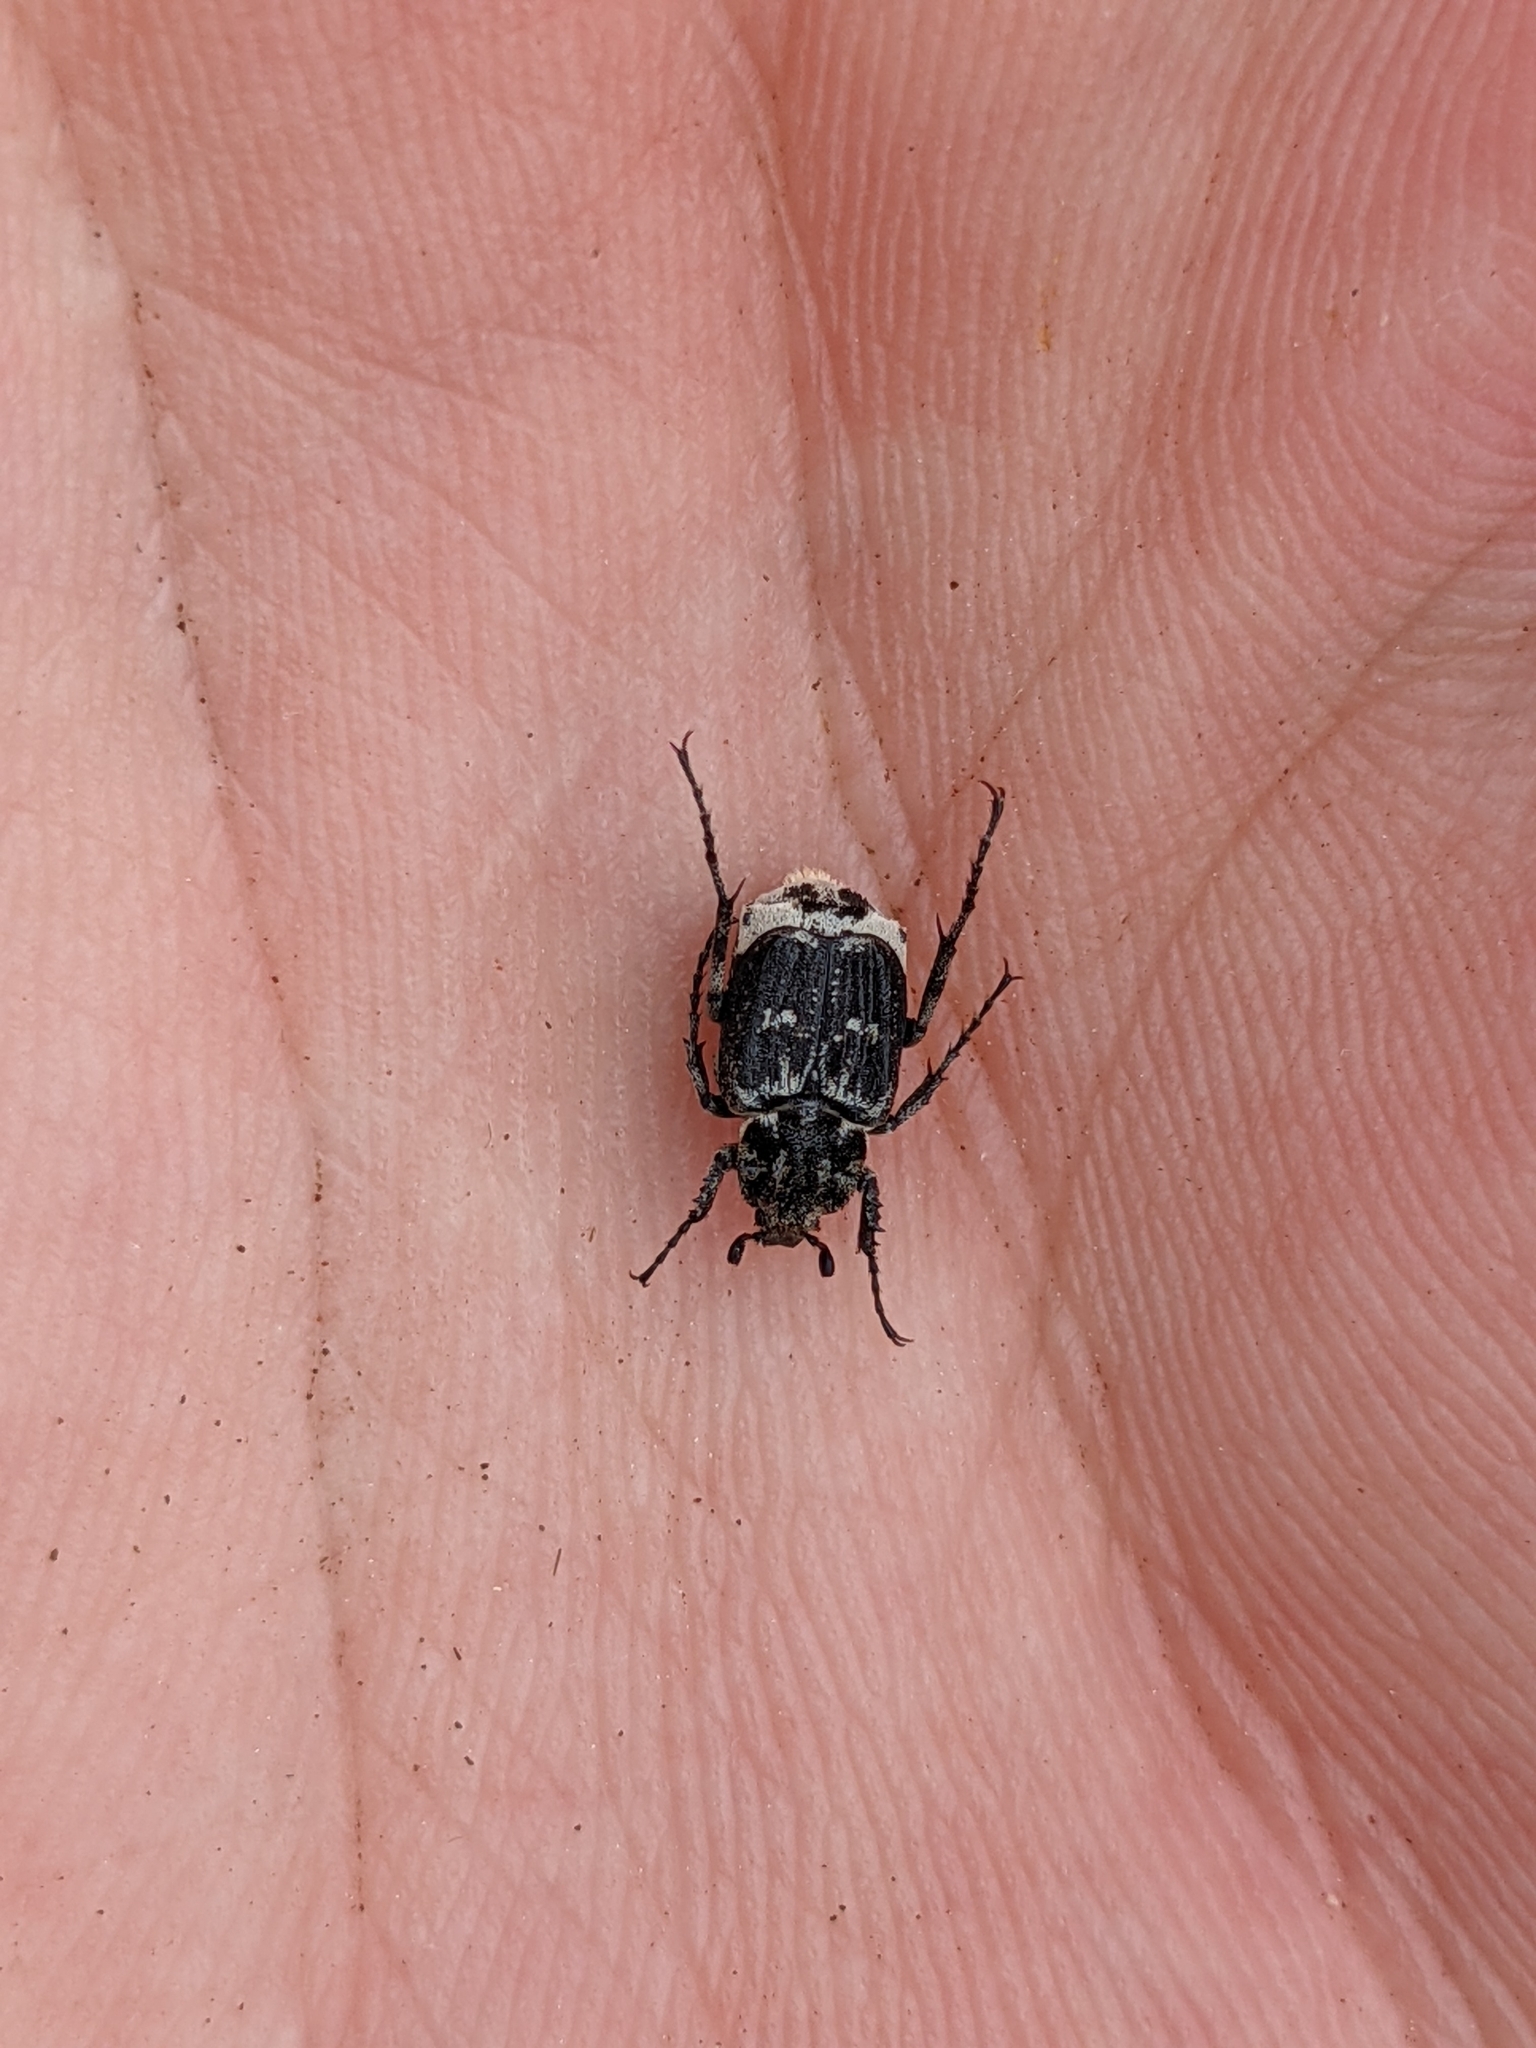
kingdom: Animalia
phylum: Arthropoda
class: Insecta
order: Coleoptera
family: Scarabaeidae
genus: Valgus
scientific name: Valgus hemipterus
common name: Bug flower chafer
